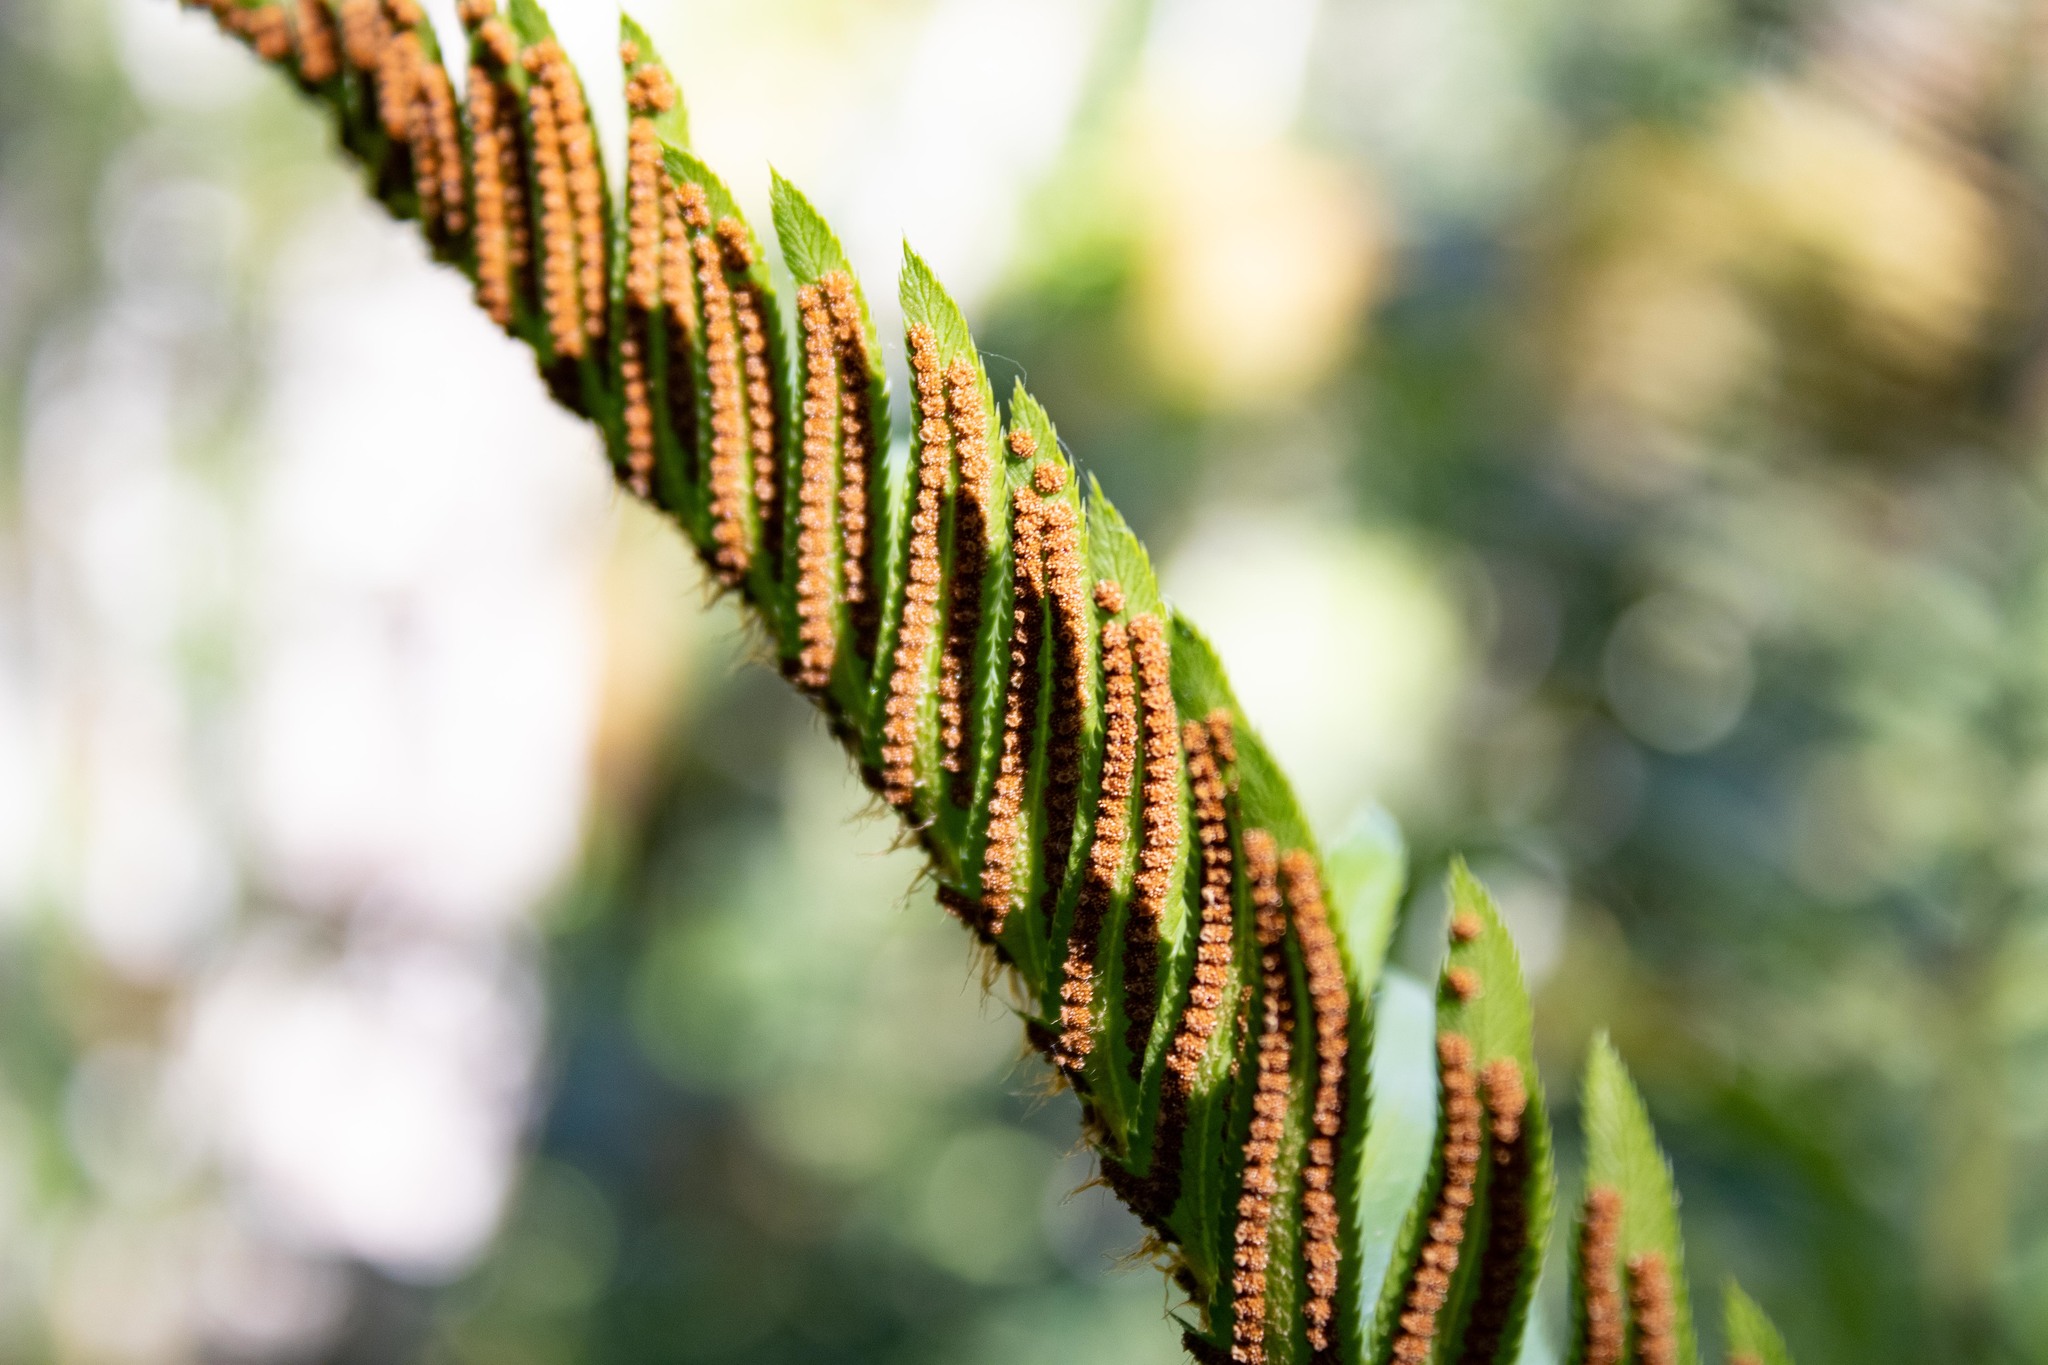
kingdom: Plantae
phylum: Tracheophyta
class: Polypodiopsida
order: Polypodiales
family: Dryopteridaceae
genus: Polystichum
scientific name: Polystichum munitum
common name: Western sword-fern
